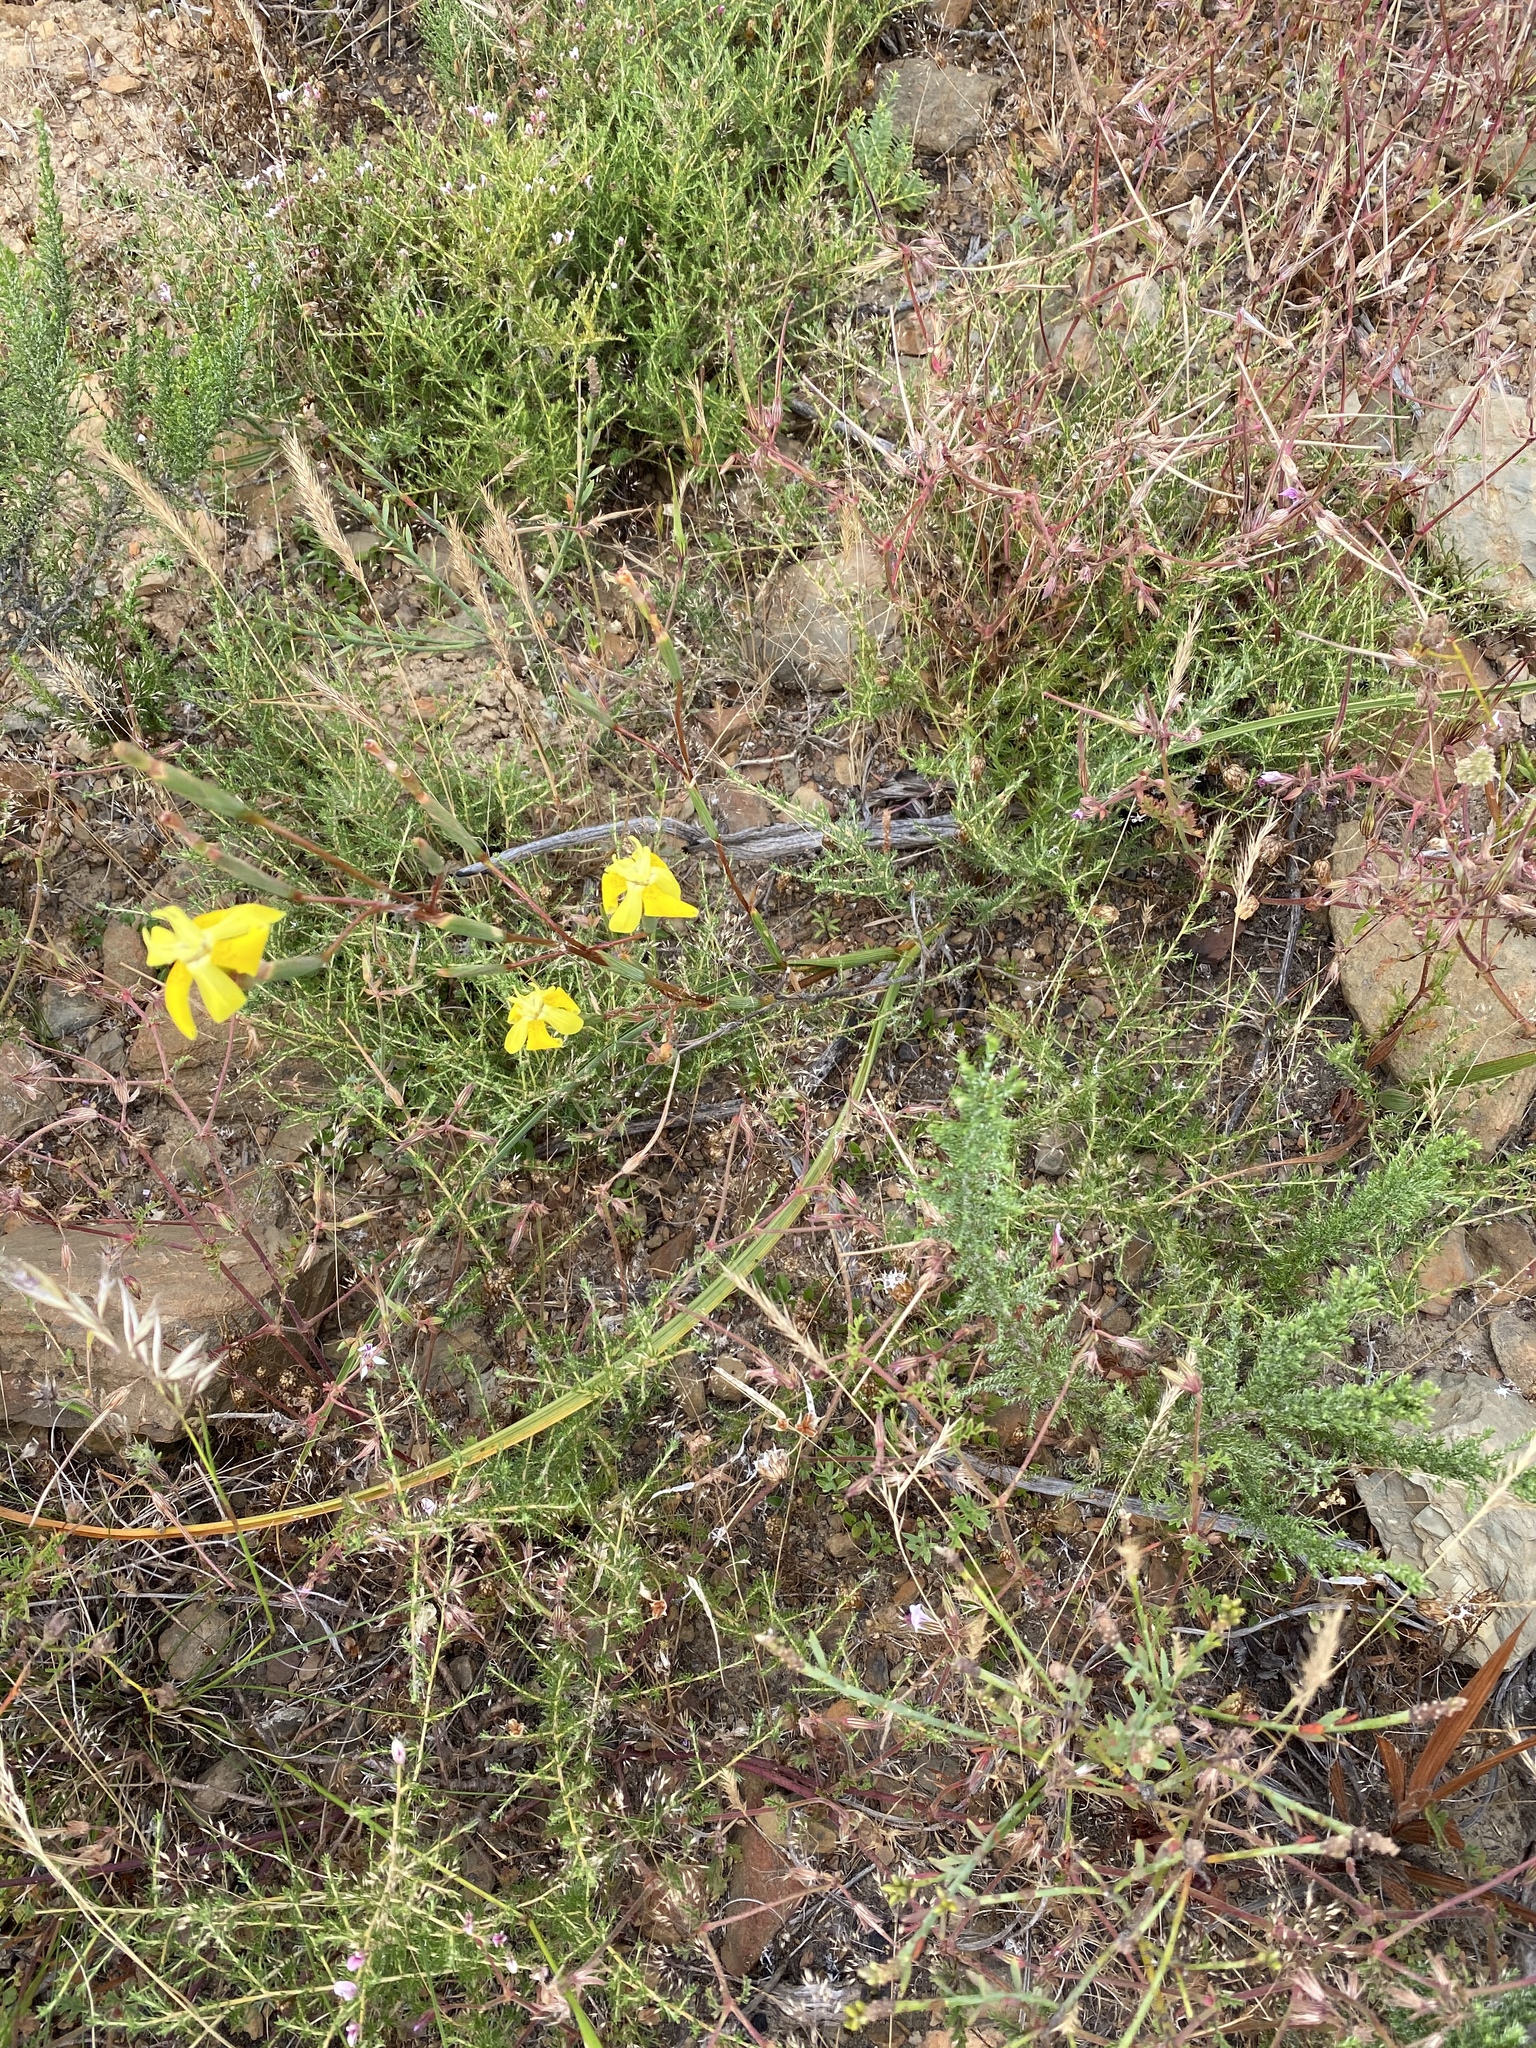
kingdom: Plantae
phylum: Tracheophyta
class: Liliopsida
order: Asparagales
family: Iridaceae
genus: Moraea
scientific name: Moraea bituminosa
